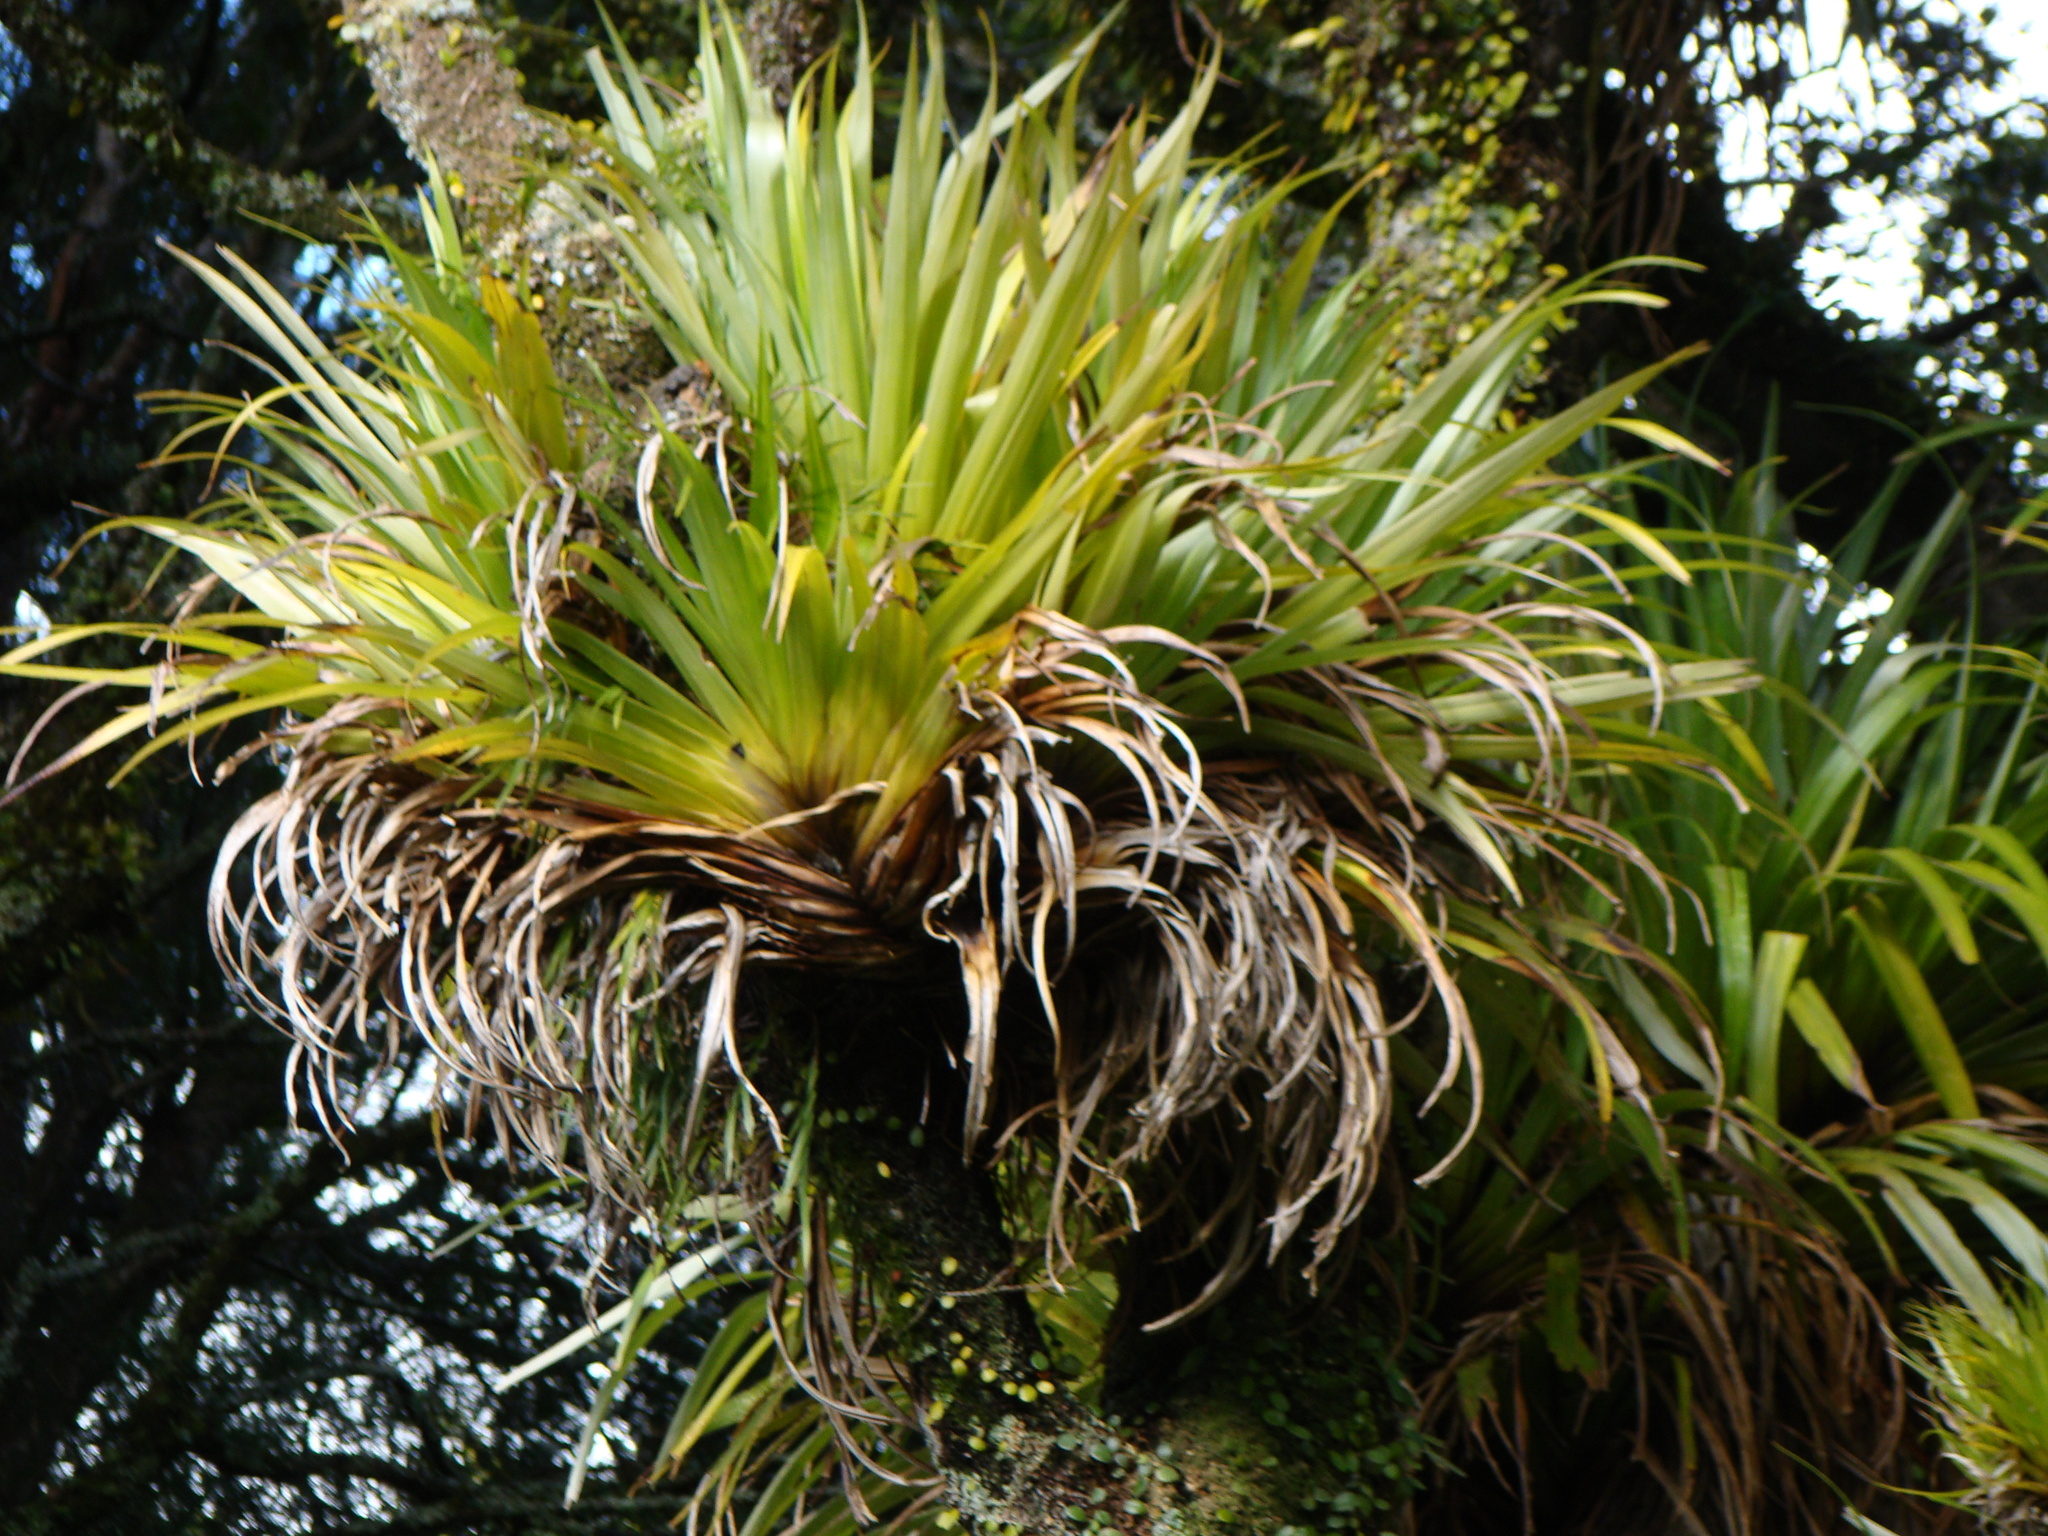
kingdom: Plantae
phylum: Tracheophyta
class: Liliopsida
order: Asparagales
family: Asteliaceae
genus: Astelia
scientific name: Astelia hastata
